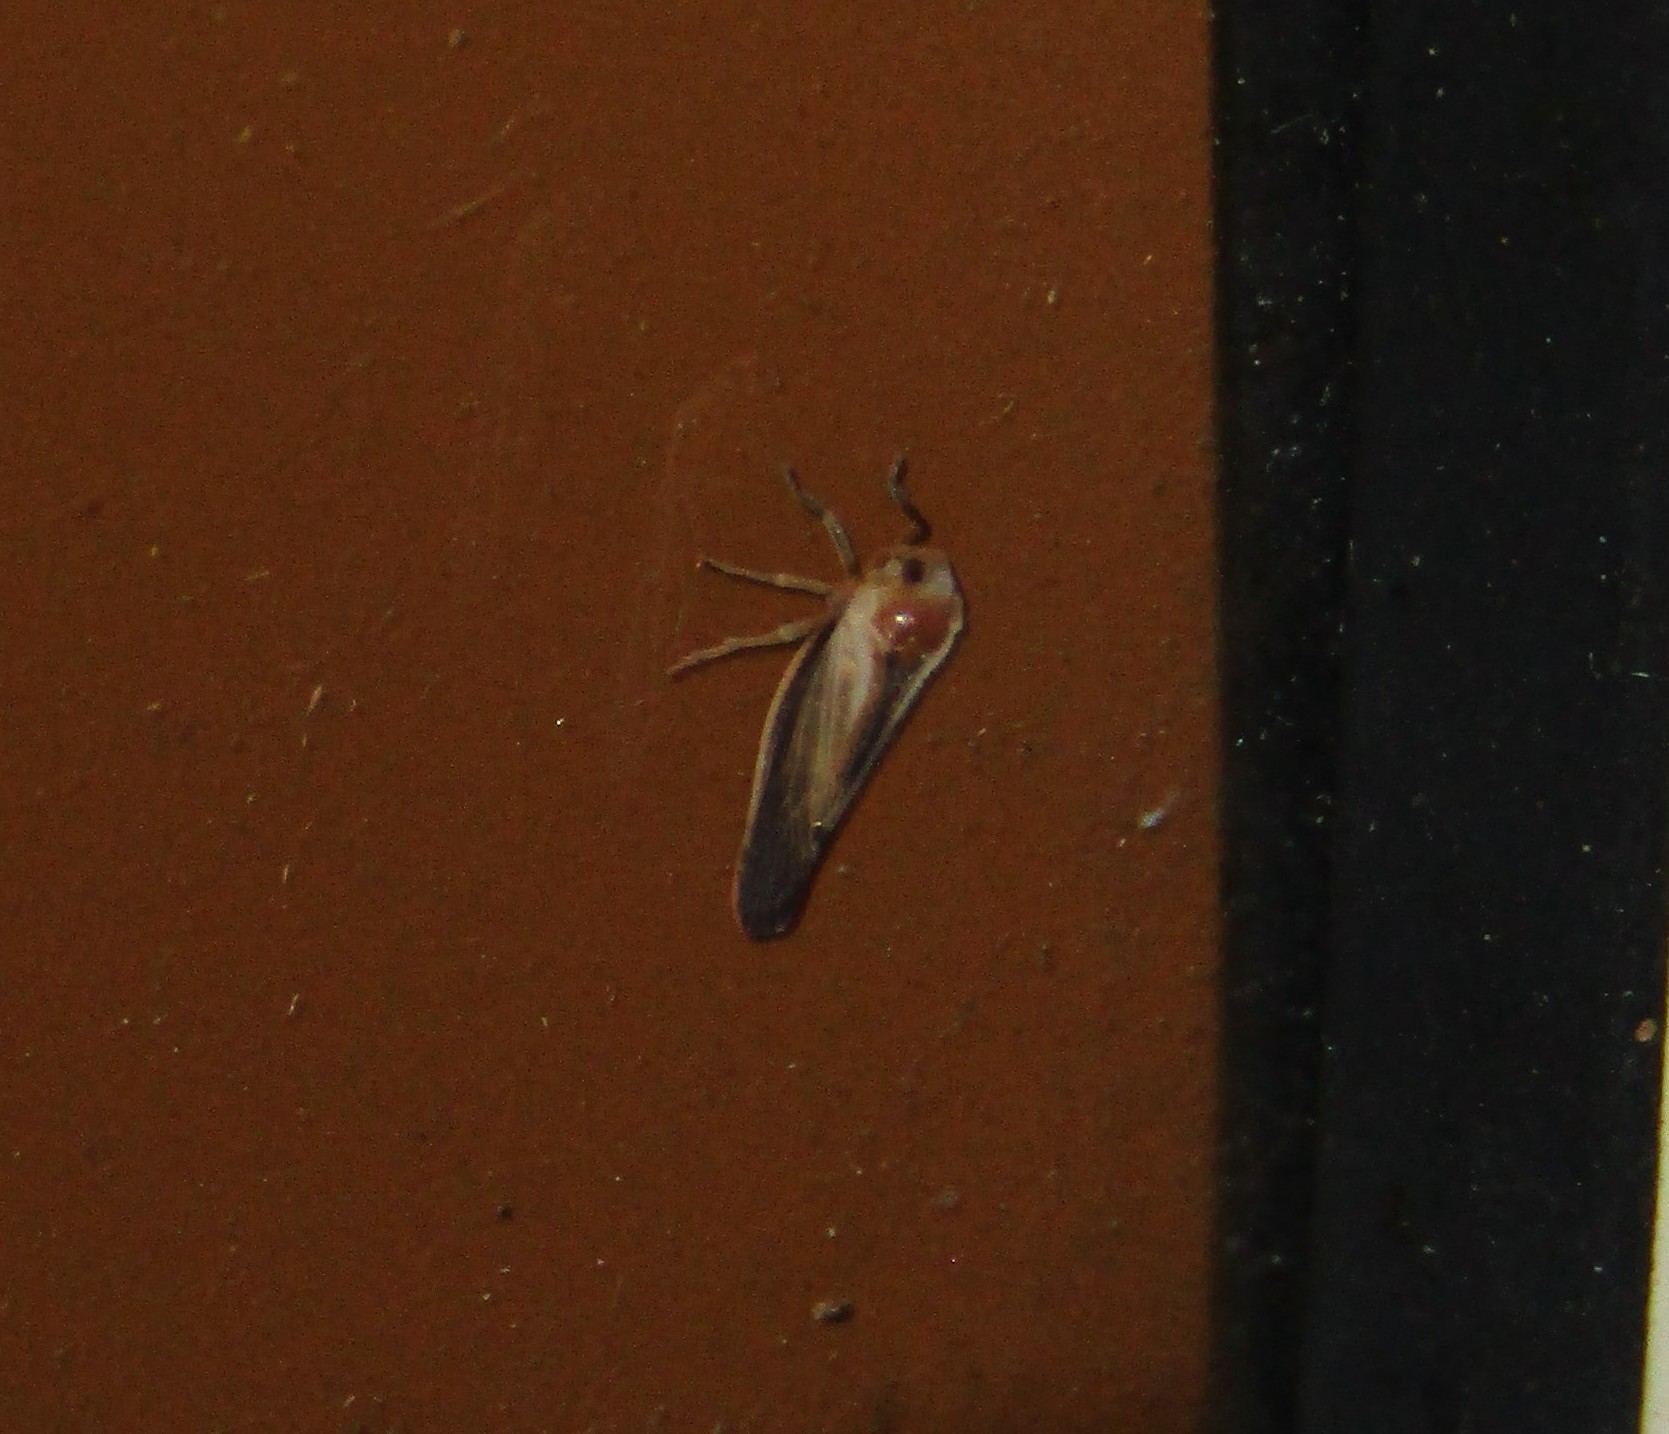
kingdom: Animalia
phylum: Arthropoda
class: Insecta
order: Hemiptera
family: Derbidae
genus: Omolicna
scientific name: Omolicna uhleri
